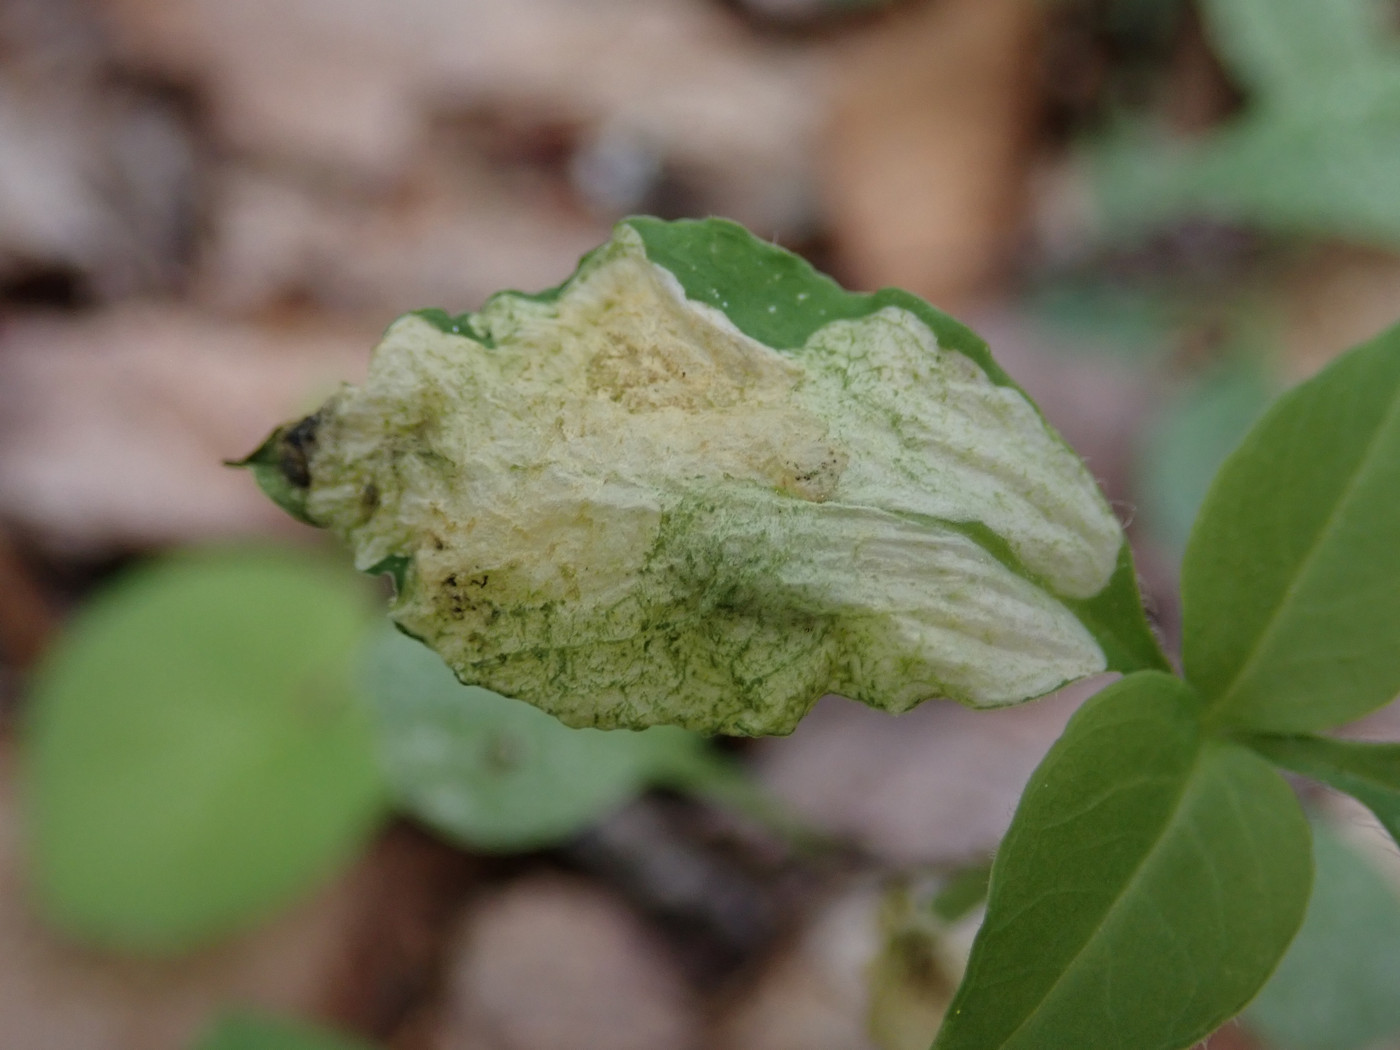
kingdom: Animalia
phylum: Arthropoda
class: Insecta
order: Diptera
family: Anthomyiidae
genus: Pegomya
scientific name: Pegomya flavifrons
